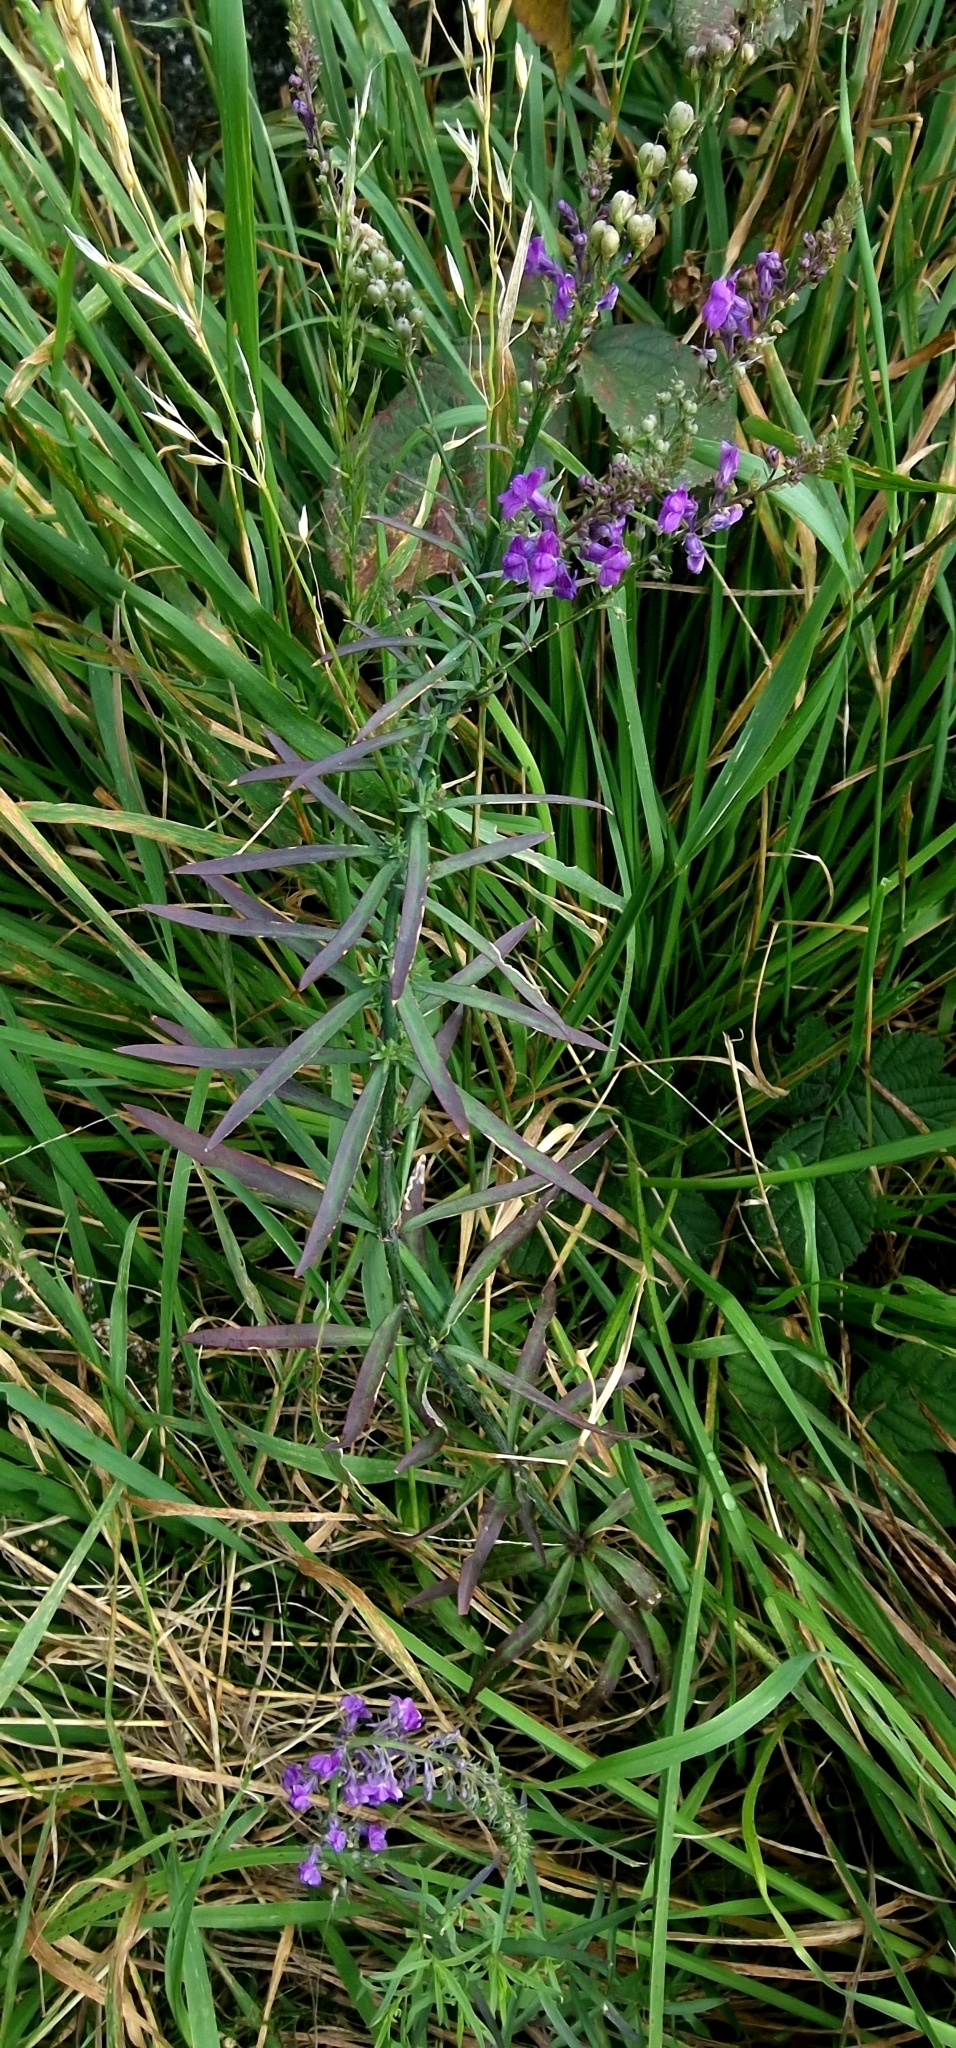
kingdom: Plantae
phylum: Tracheophyta
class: Magnoliopsida
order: Lamiales
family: Plantaginaceae
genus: Linaria
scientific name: Linaria purpurea
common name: Purple toadflax
